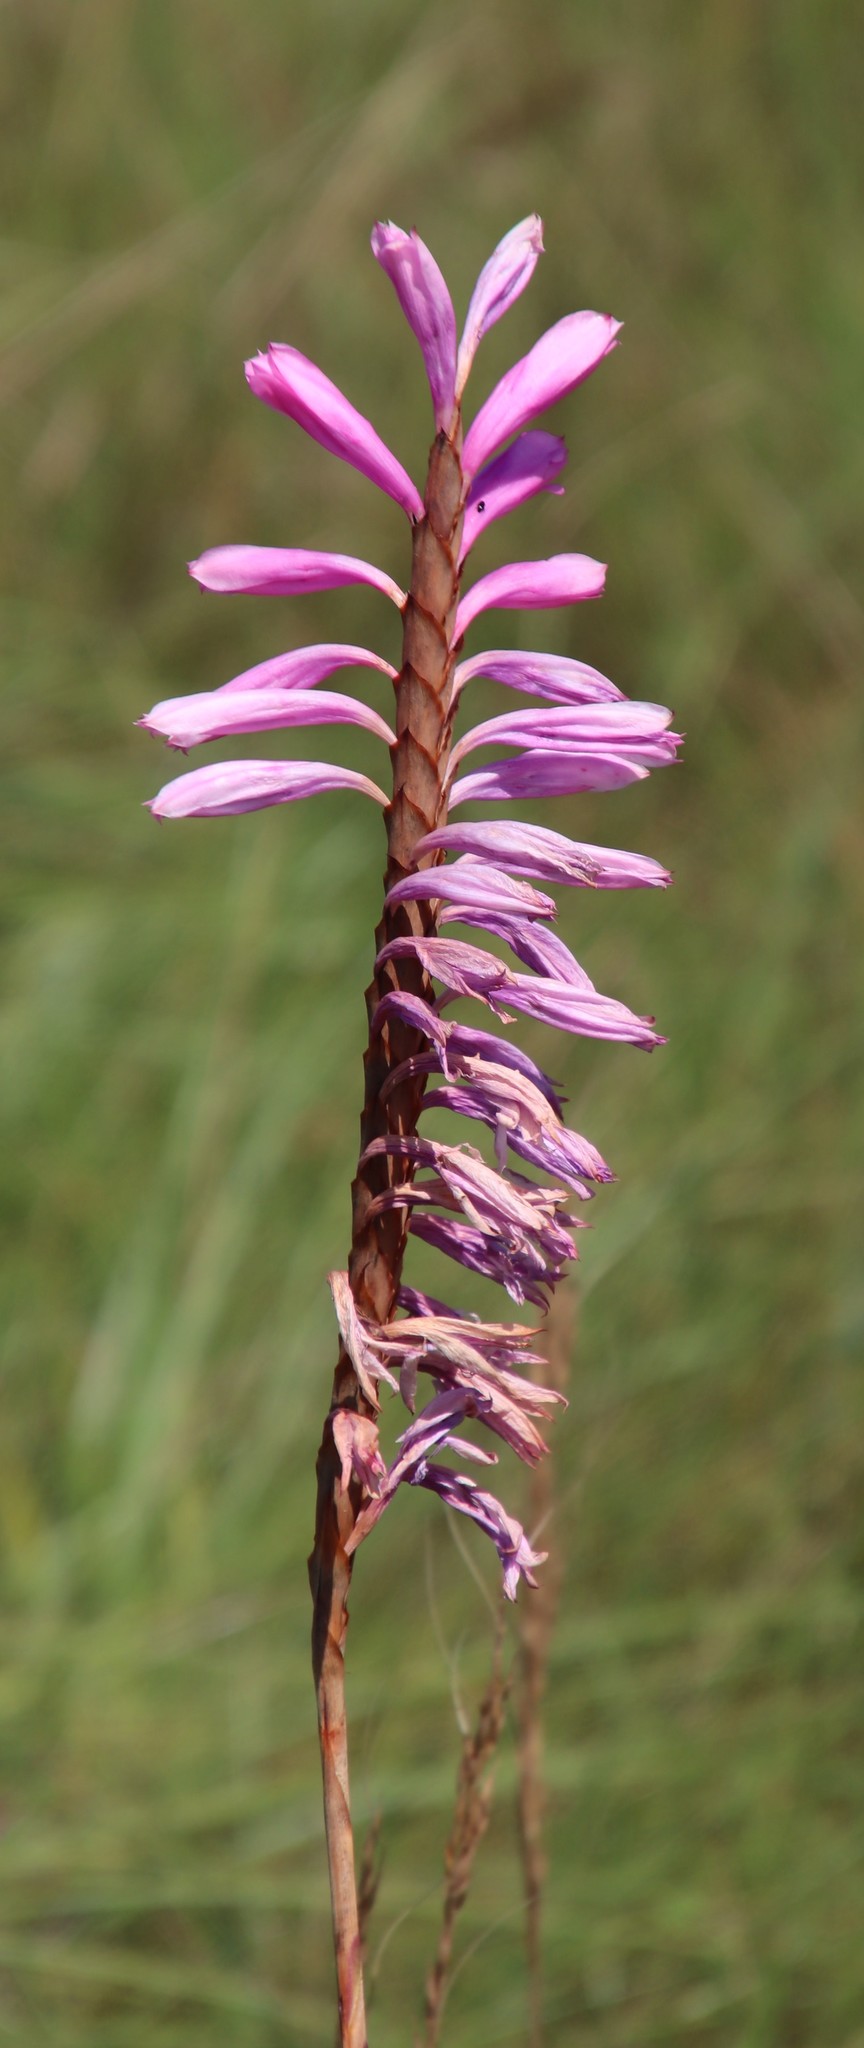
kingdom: Plantae
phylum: Tracheophyta
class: Liliopsida
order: Asparagales
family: Iridaceae
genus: Watsonia
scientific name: Watsonia densiflora
